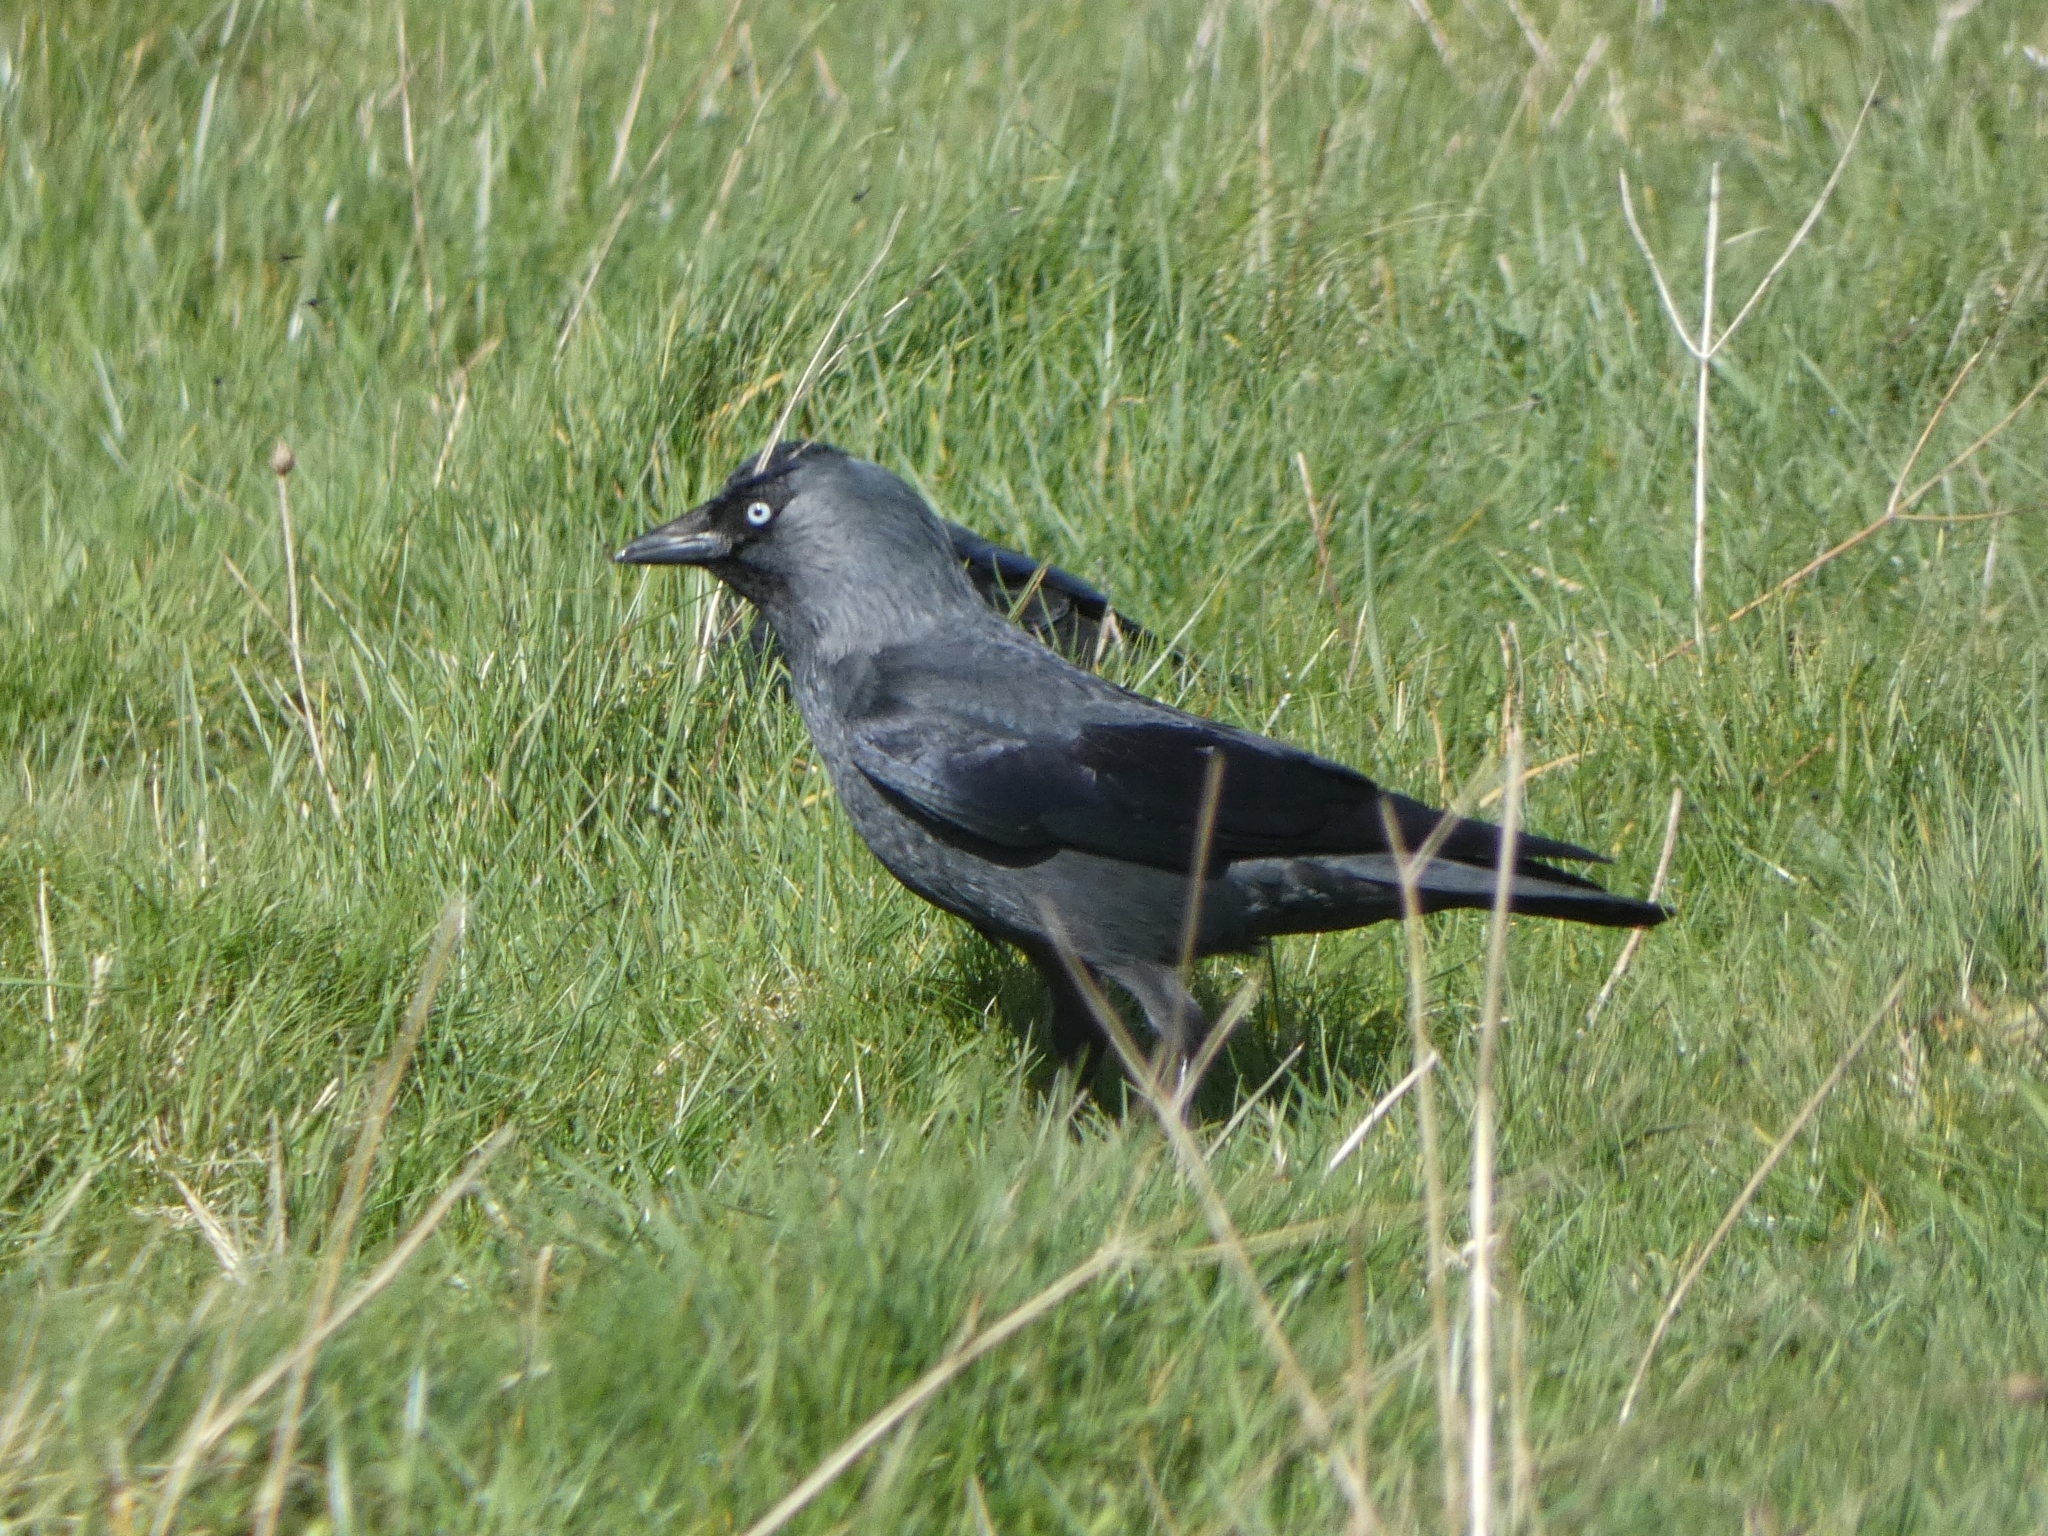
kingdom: Animalia
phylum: Chordata
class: Aves
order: Passeriformes
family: Corvidae
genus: Coloeus
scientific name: Coloeus monedula
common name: Western jackdaw
